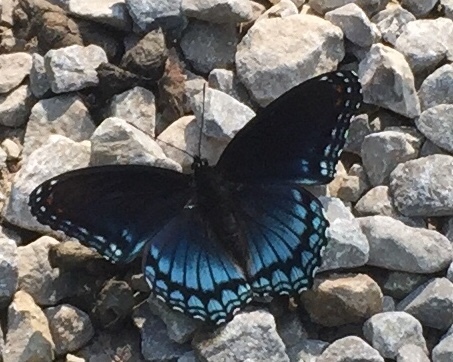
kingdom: Animalia
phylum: Arthropoda
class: Insecta
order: Lepidoptera
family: Nymphalidae
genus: Limenitis
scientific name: Limenitis astyanax
